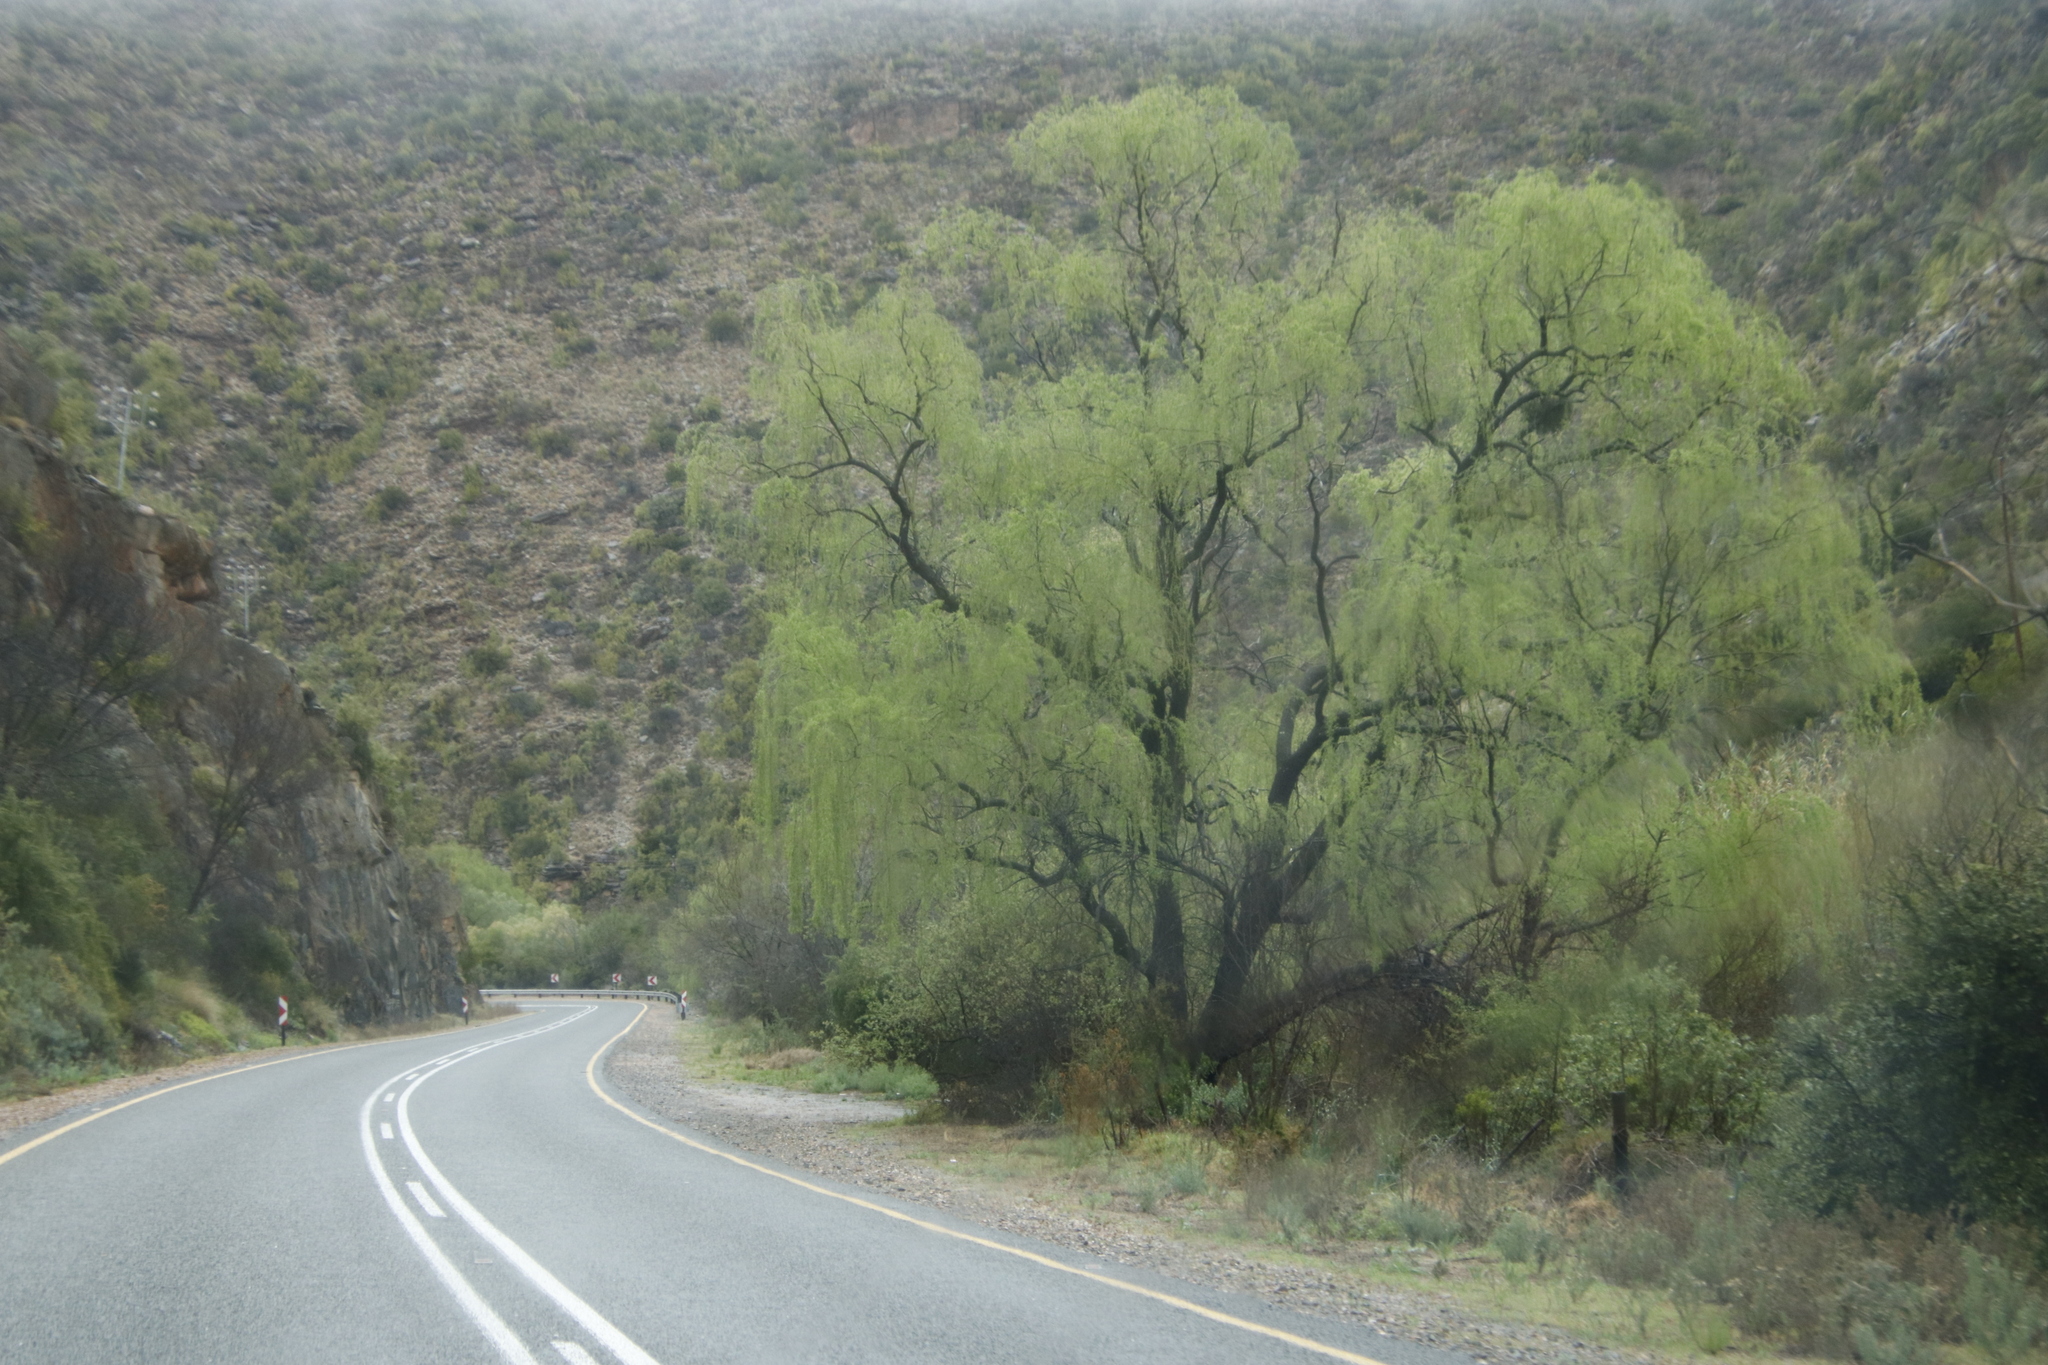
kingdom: Plantae
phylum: Tracheophyta
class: Magnoliopsida
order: Malpighiales
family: Salicaceae
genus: Salix
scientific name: Salix babylonica
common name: Weeping willow
